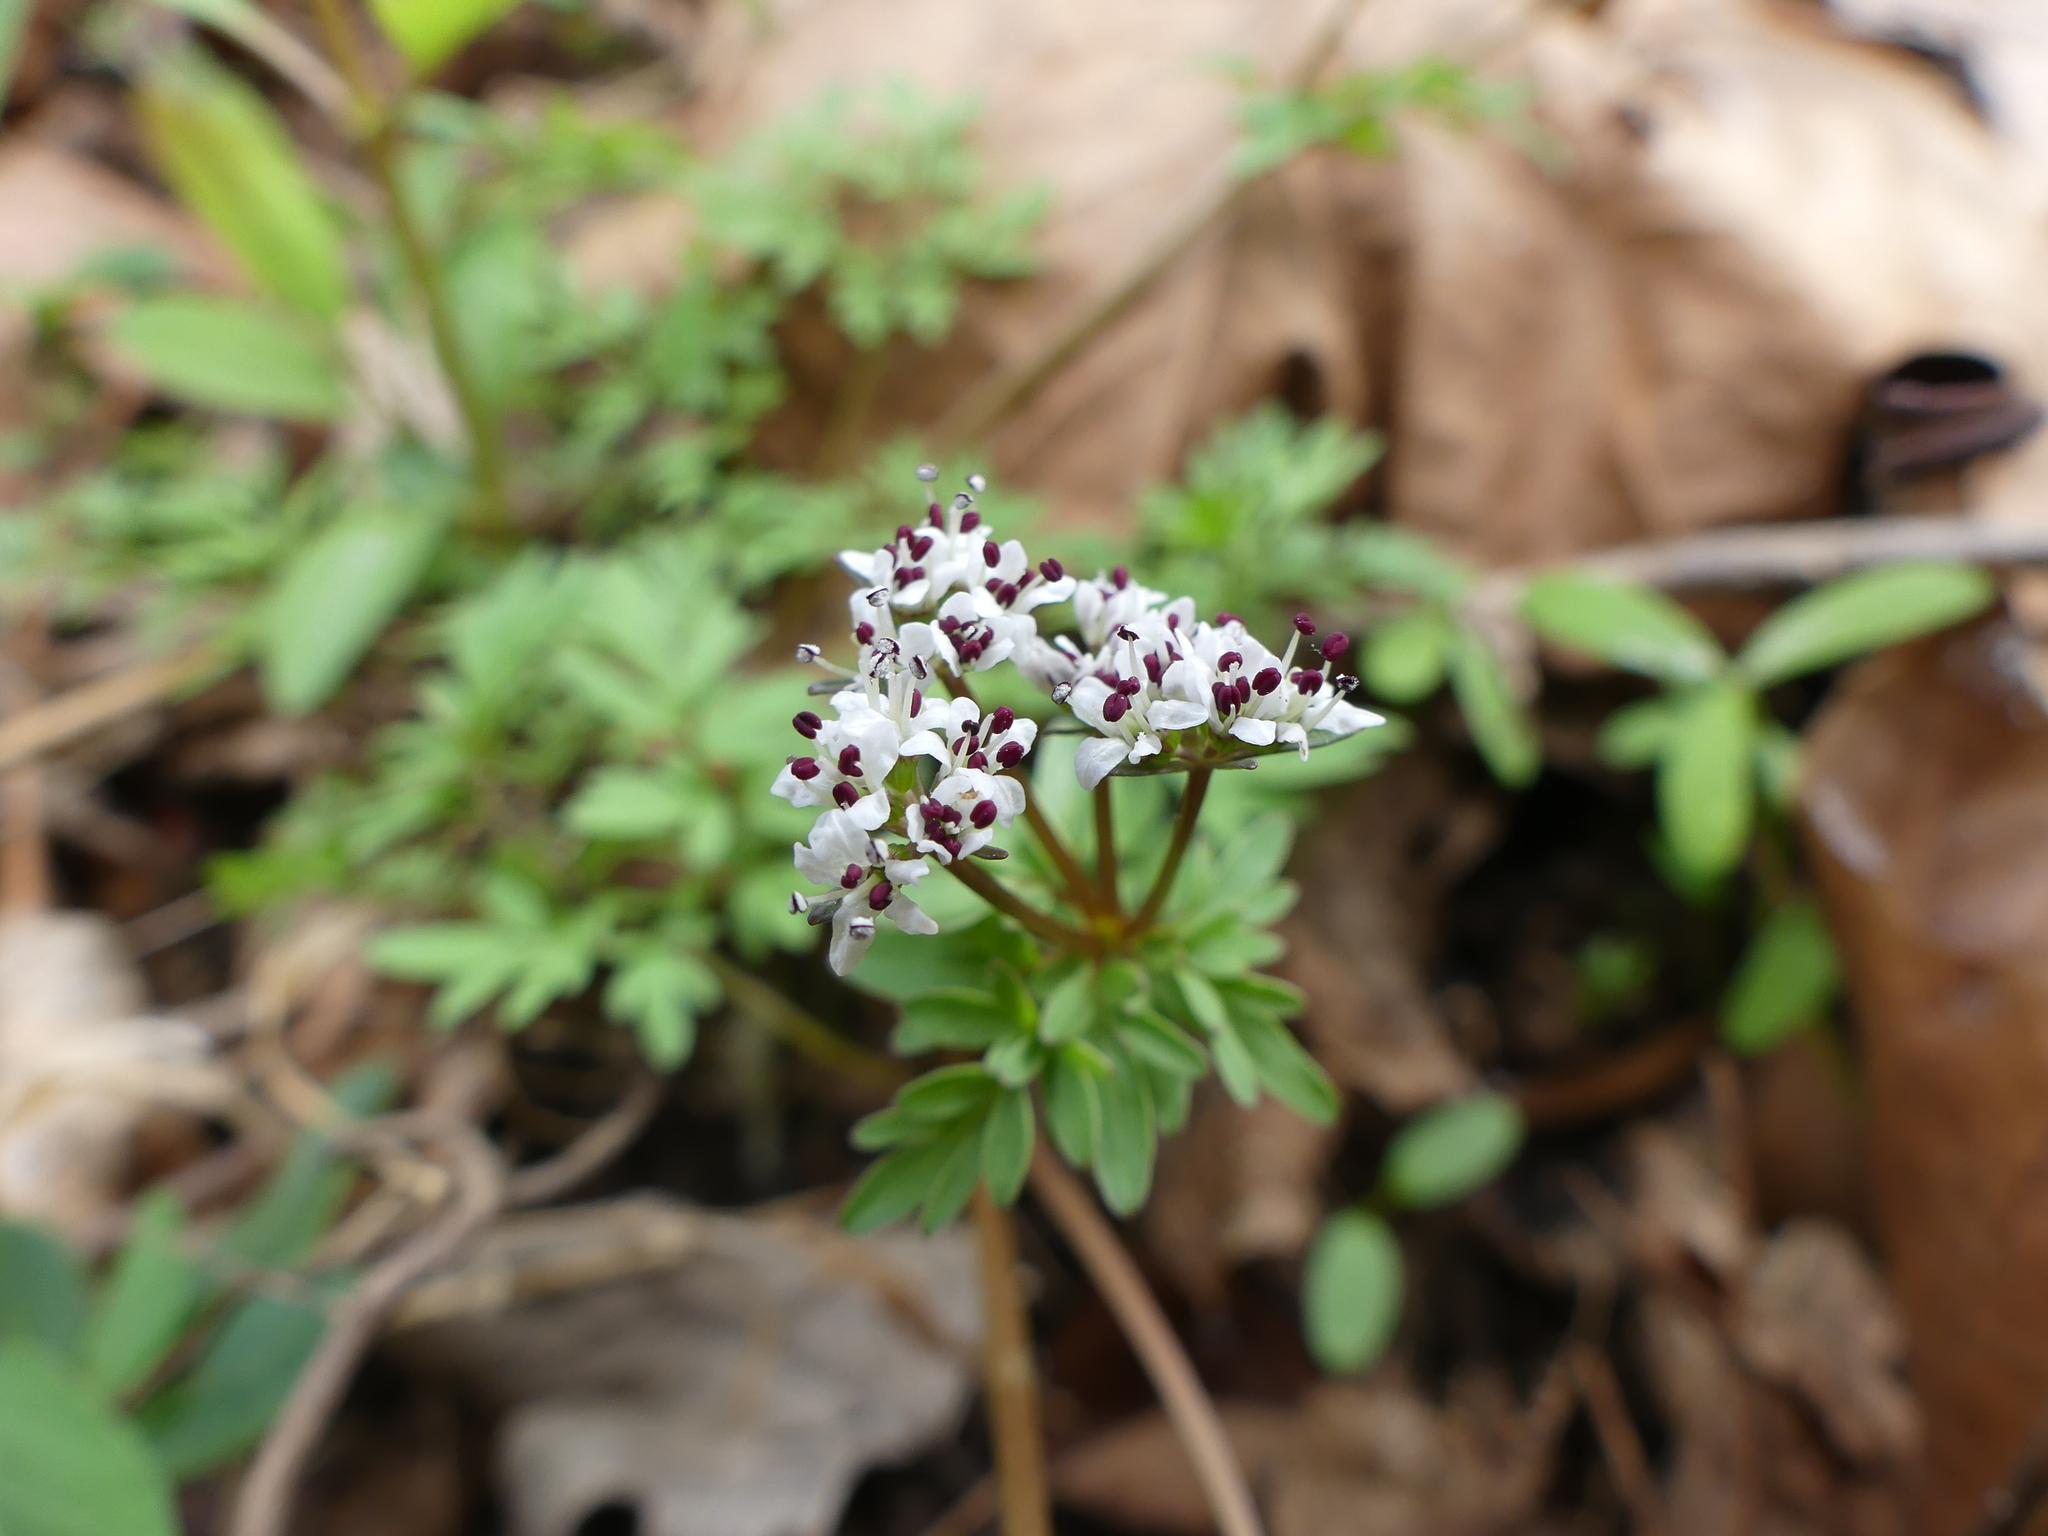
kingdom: Plantae
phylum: Tracheophyta
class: Magnoliopsida
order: Apiales
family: Apiaceae
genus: Erigenia
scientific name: Erigenia bulbosa
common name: Pepper-and-salt
